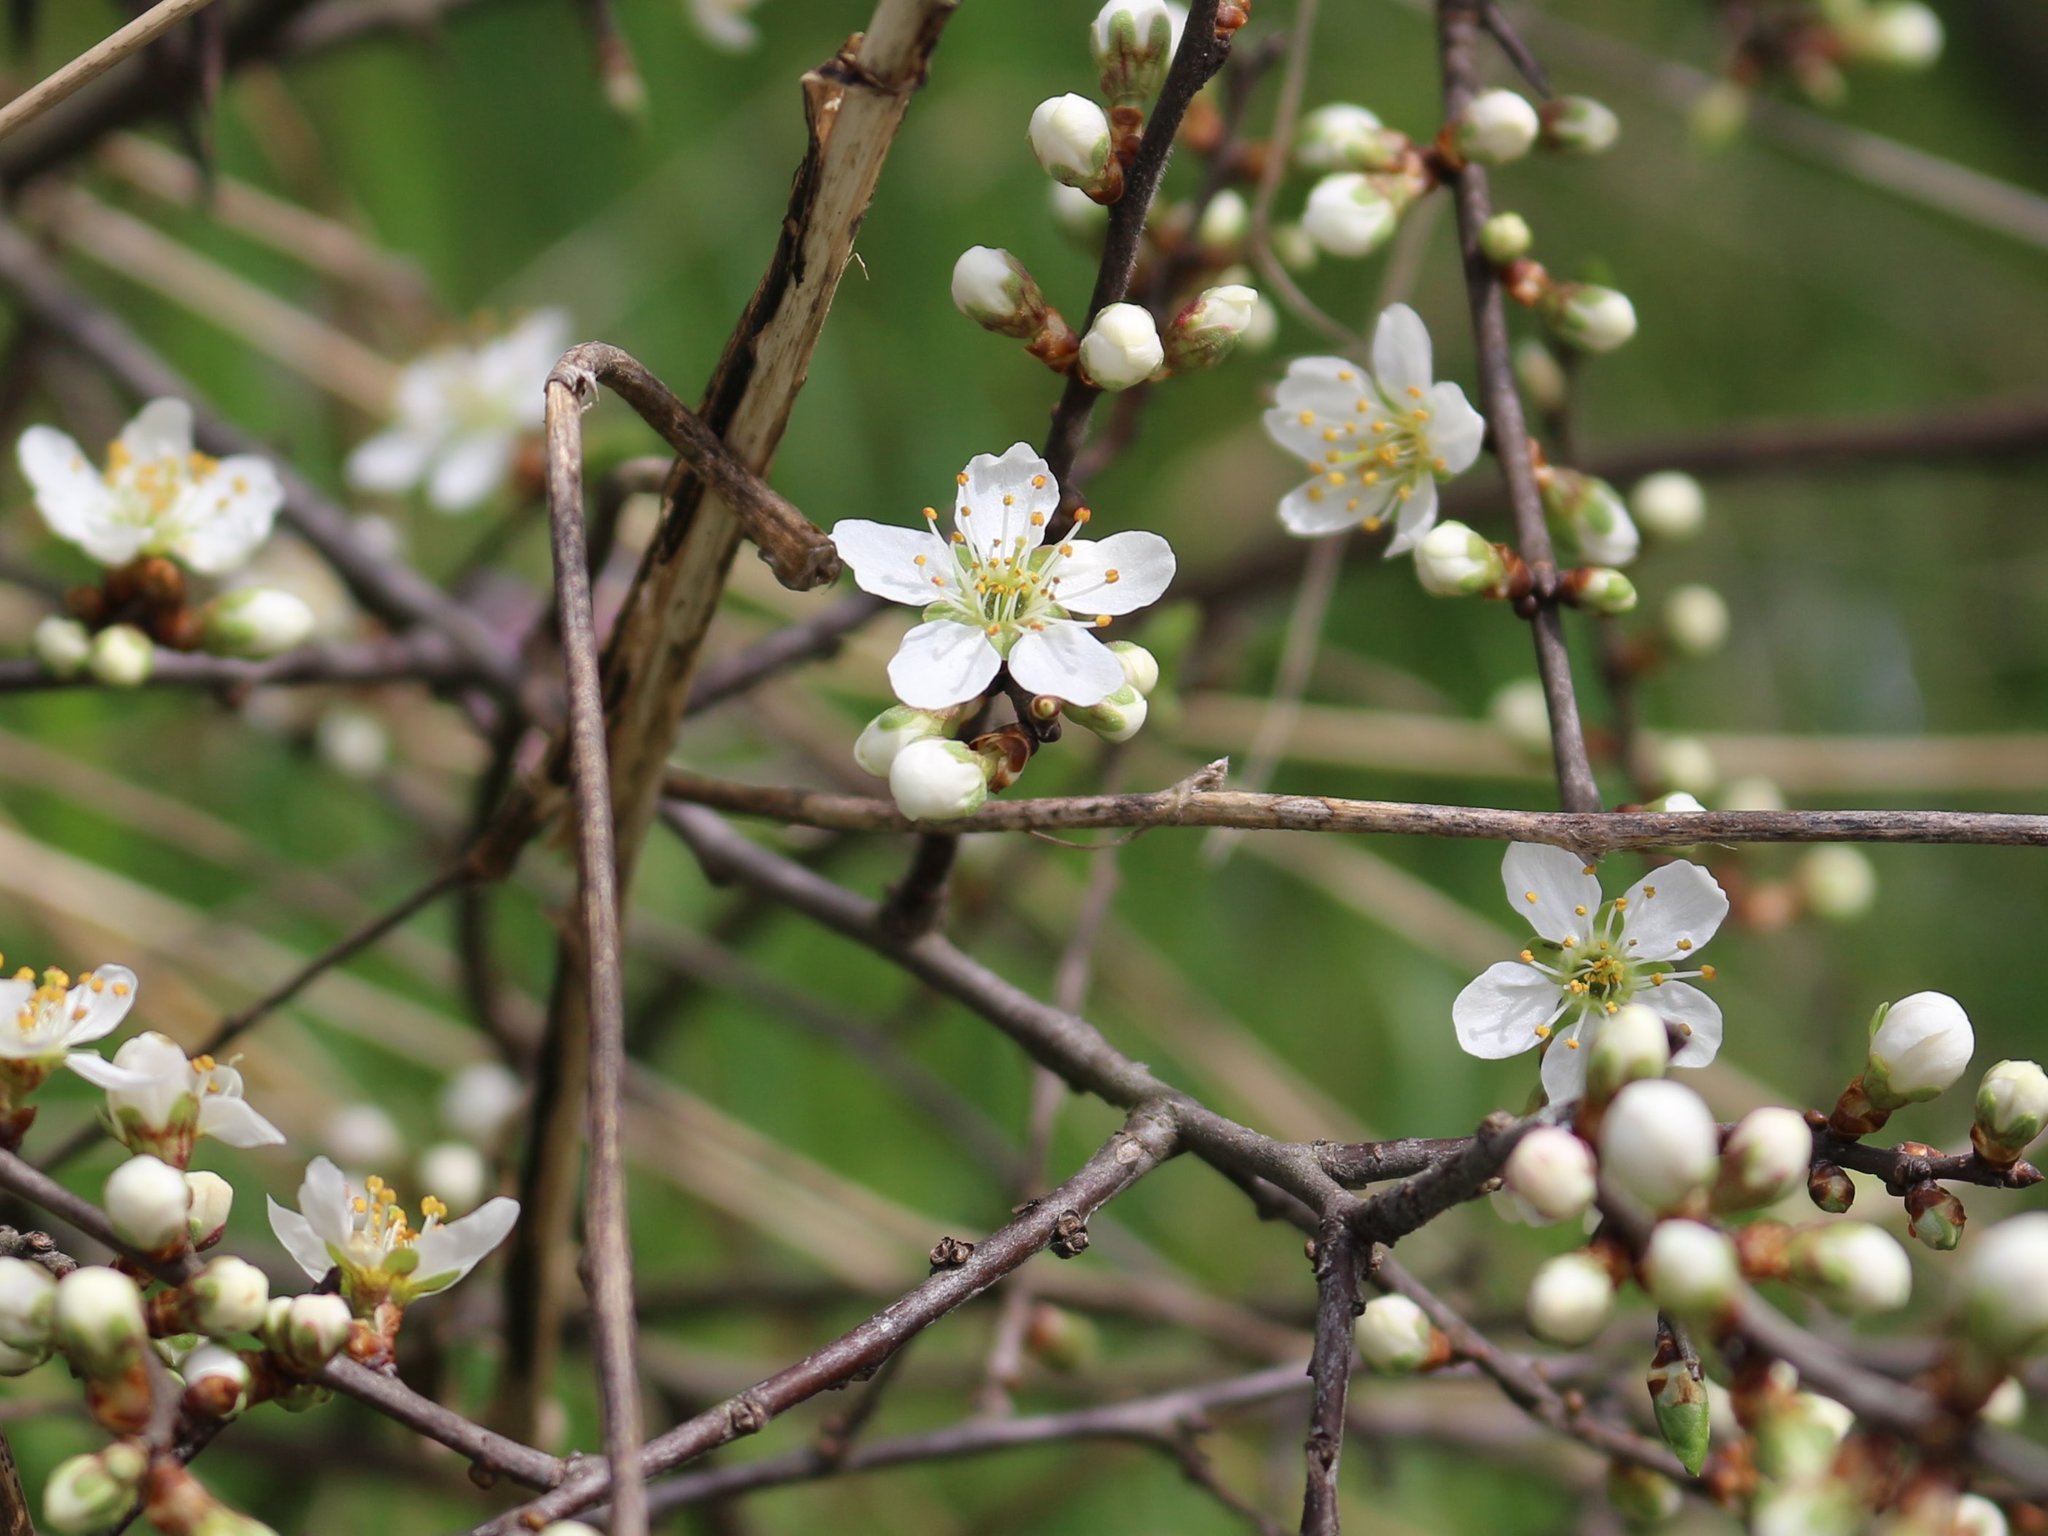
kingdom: Plantae
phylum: Tracheophyta
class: Magnoliopsida
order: Rosales
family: Rosaceae
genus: Prunus
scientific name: Prunus spinosa
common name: Blackthorn
